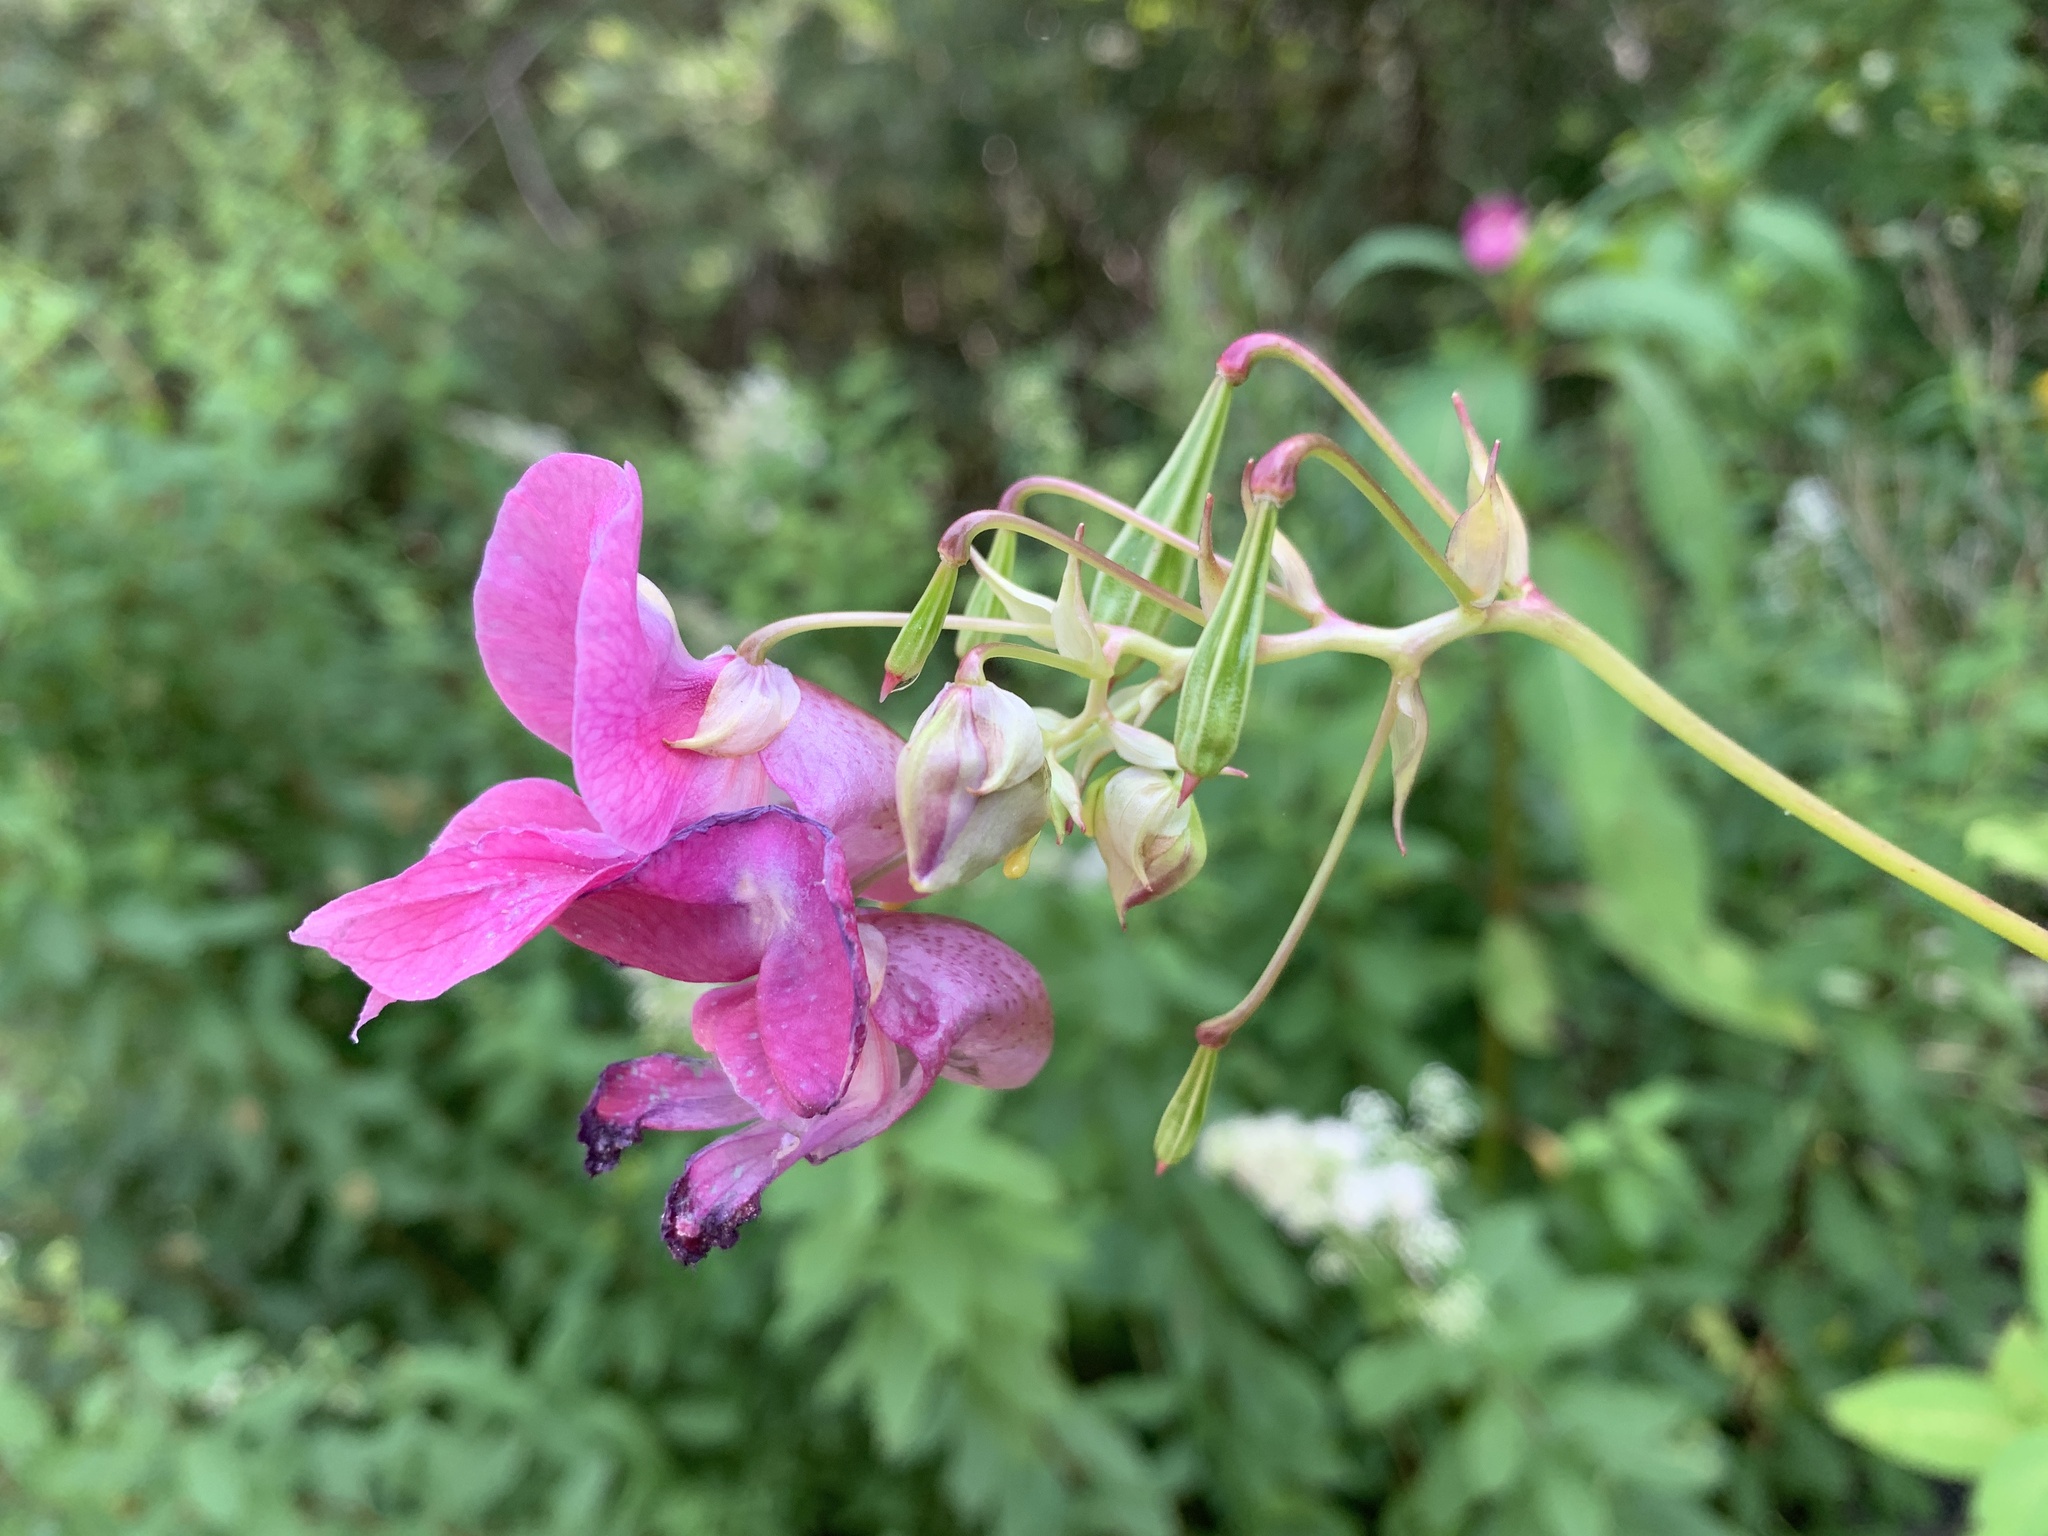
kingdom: Plantae
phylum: Tracheophyta
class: Magnoliopsida
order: Ericales
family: Balsaminaceae
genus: Impatiens
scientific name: Impatiens glandulifera
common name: Himalayan balsam
